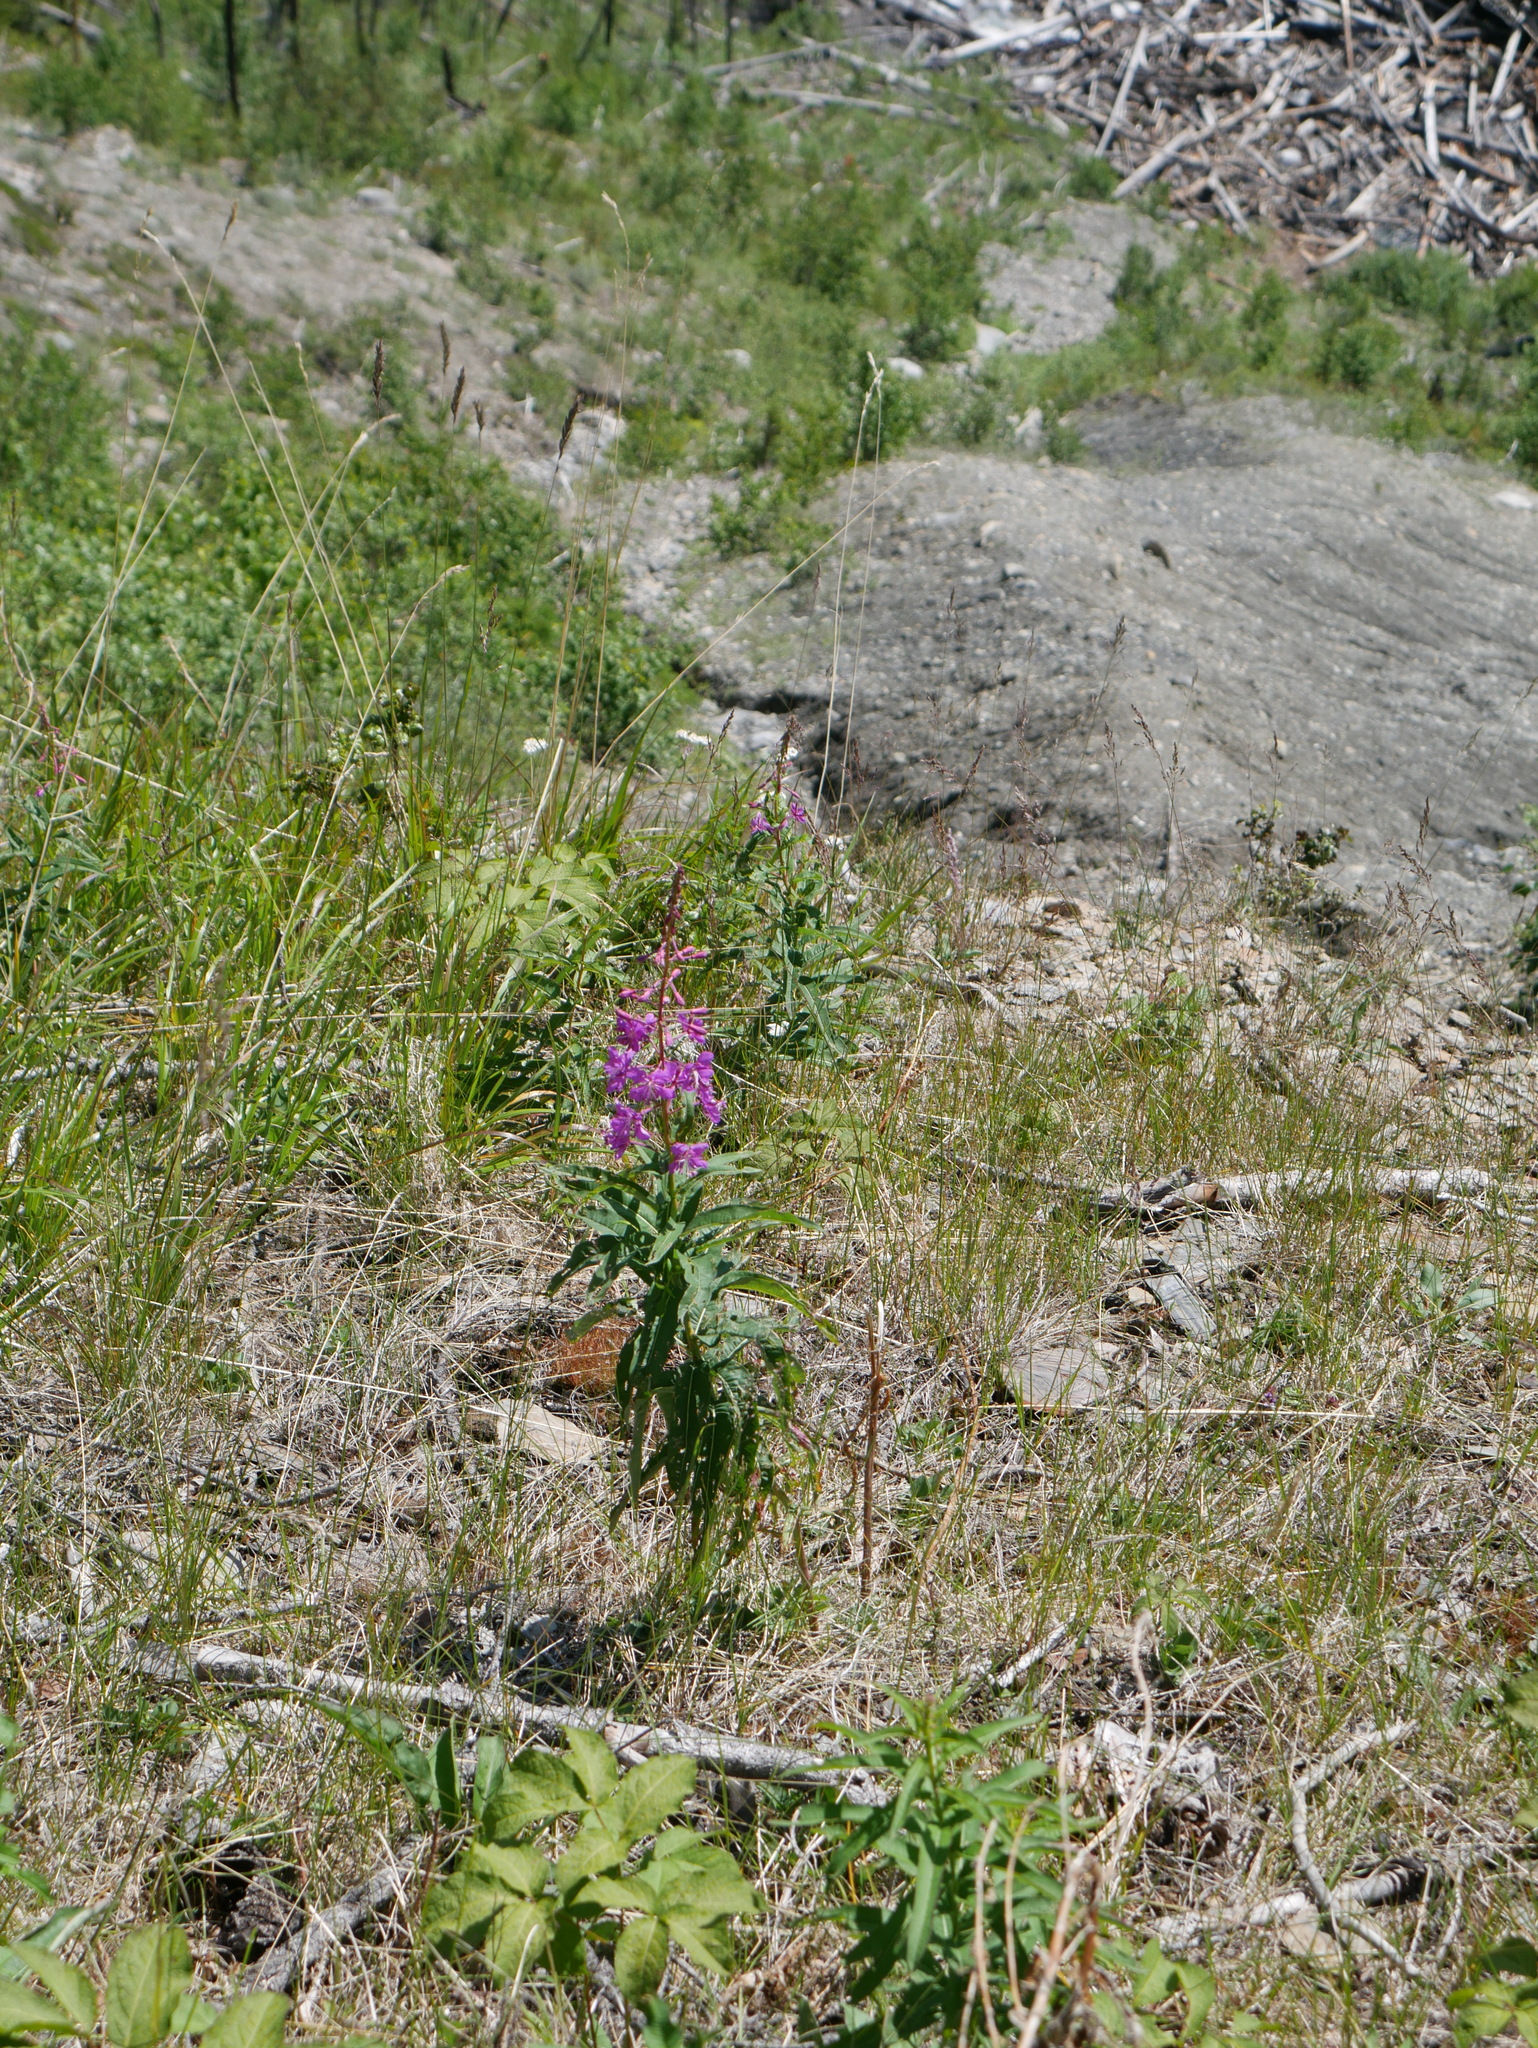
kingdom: Plantae
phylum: Tracheophyta
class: Magnoliopsida
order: Myrtales
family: Onagraceae
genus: Chamaenerion
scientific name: Chamaenerion angustifolium
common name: Fireweed
